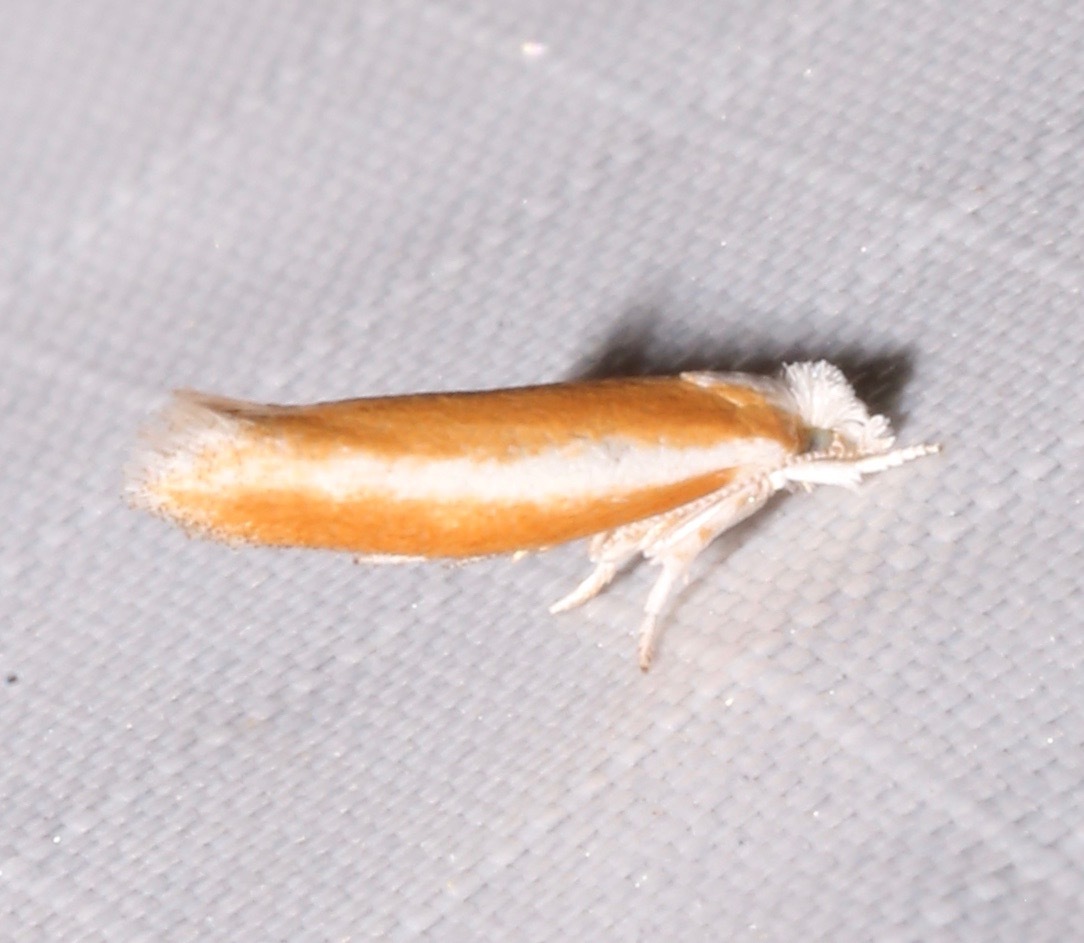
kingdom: Animalia
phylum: Arthropoda
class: Insecta
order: Lepidoptera
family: Yponomeutidae
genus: Zelleria
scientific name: Zelleria haimbachi
